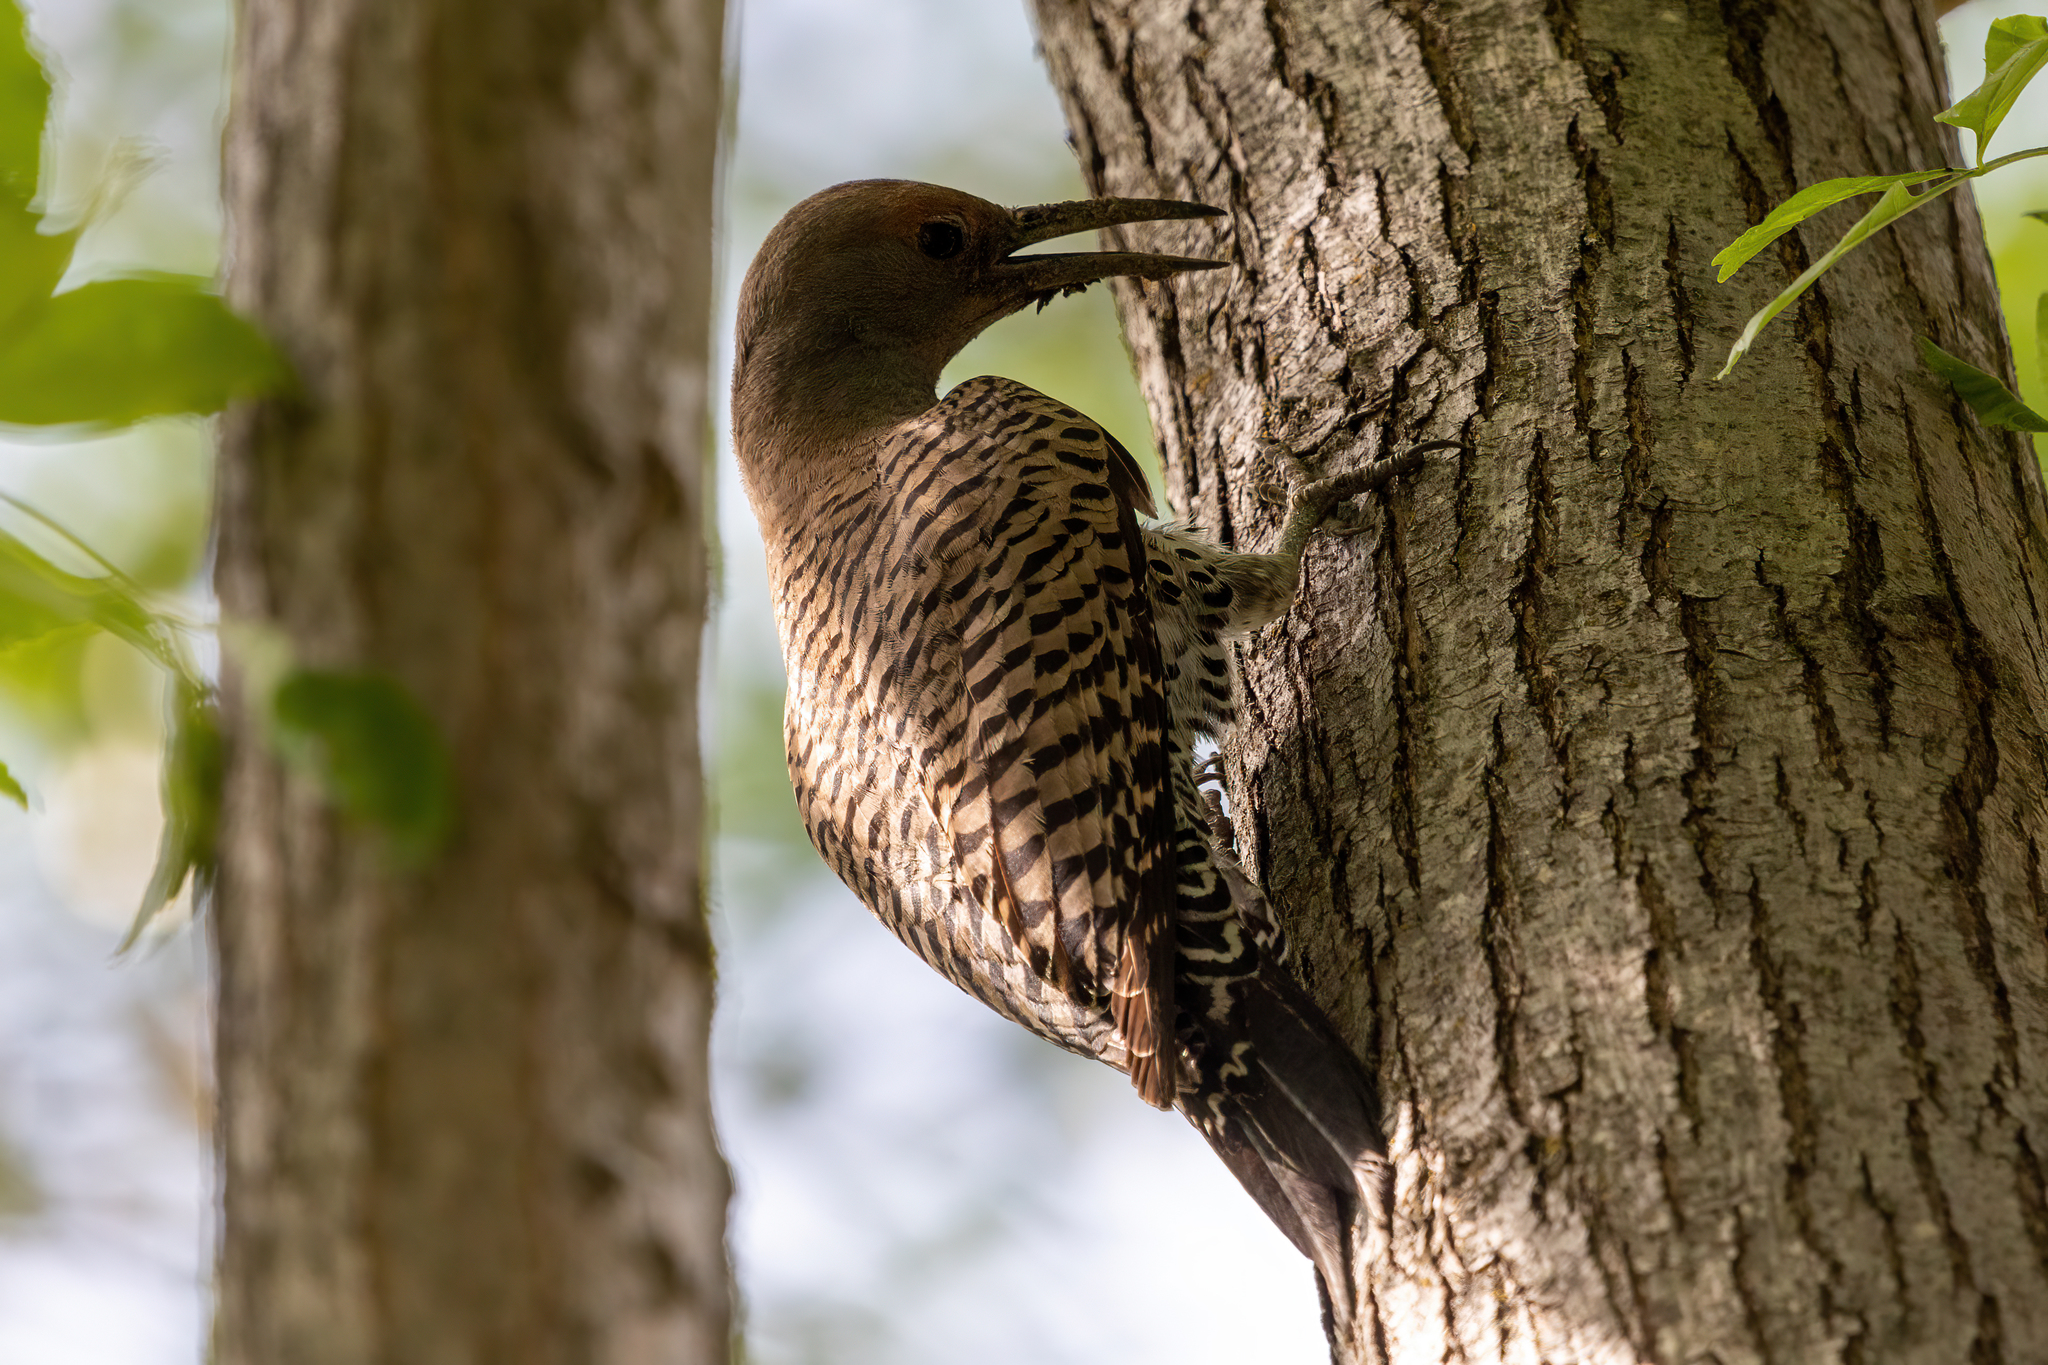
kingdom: Animalia
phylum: Chordata
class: Aves
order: Piciformes
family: Picidae
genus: Colaptes
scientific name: Colaptes auratus
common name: Northern flicker
